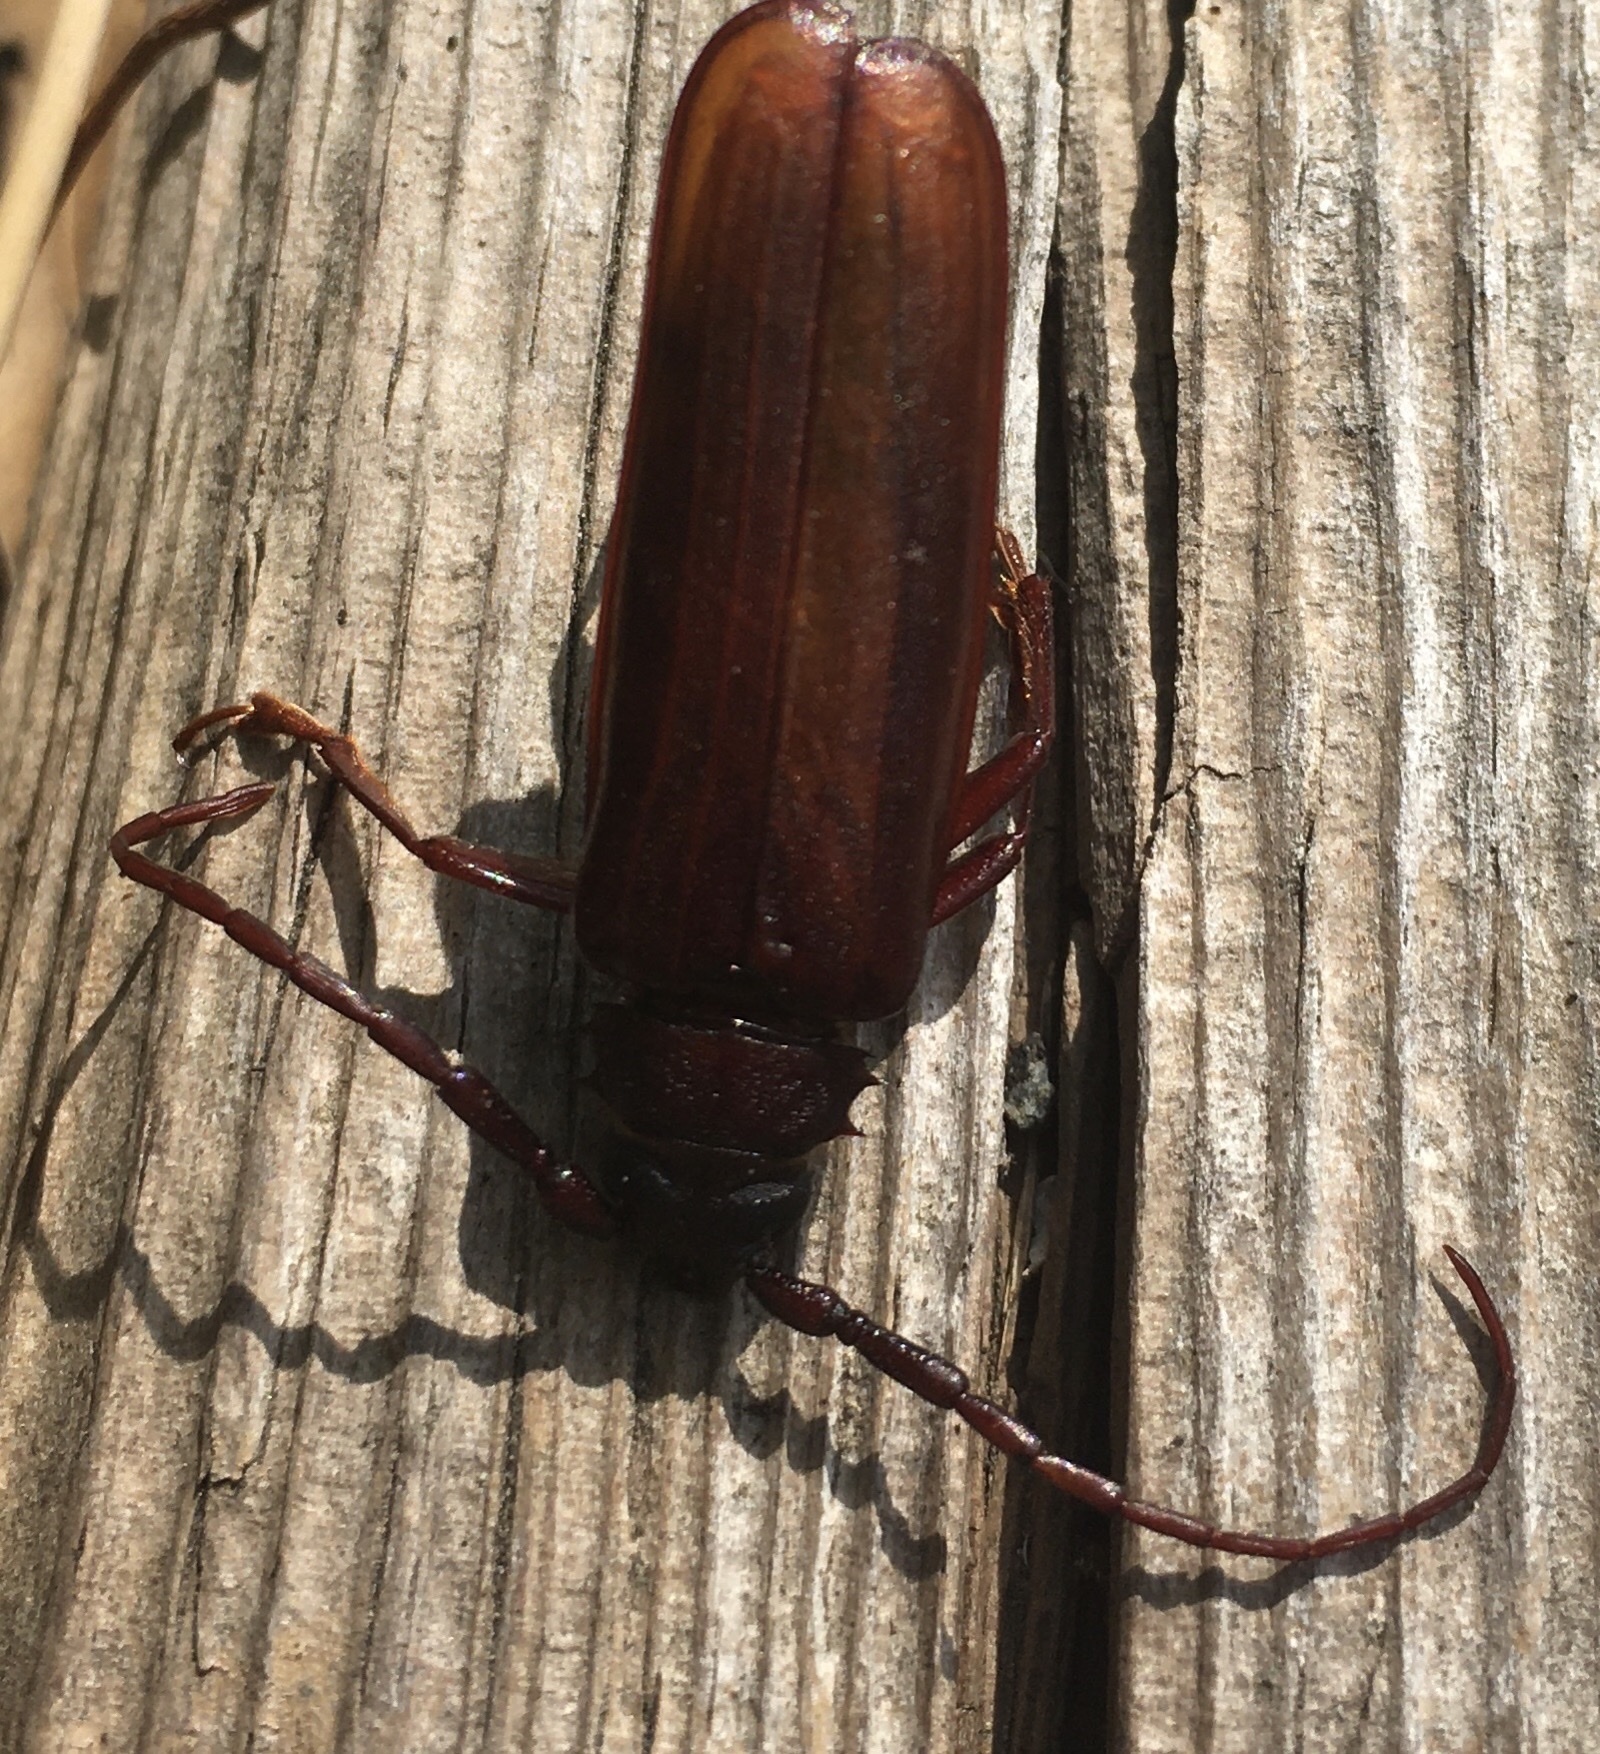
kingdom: Animalia
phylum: Arthropoda
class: Insecta
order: Coleoptera
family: Cerambycidae
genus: Orthosoma
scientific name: Orthosoma brunneum
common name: Brown prionid beetle
